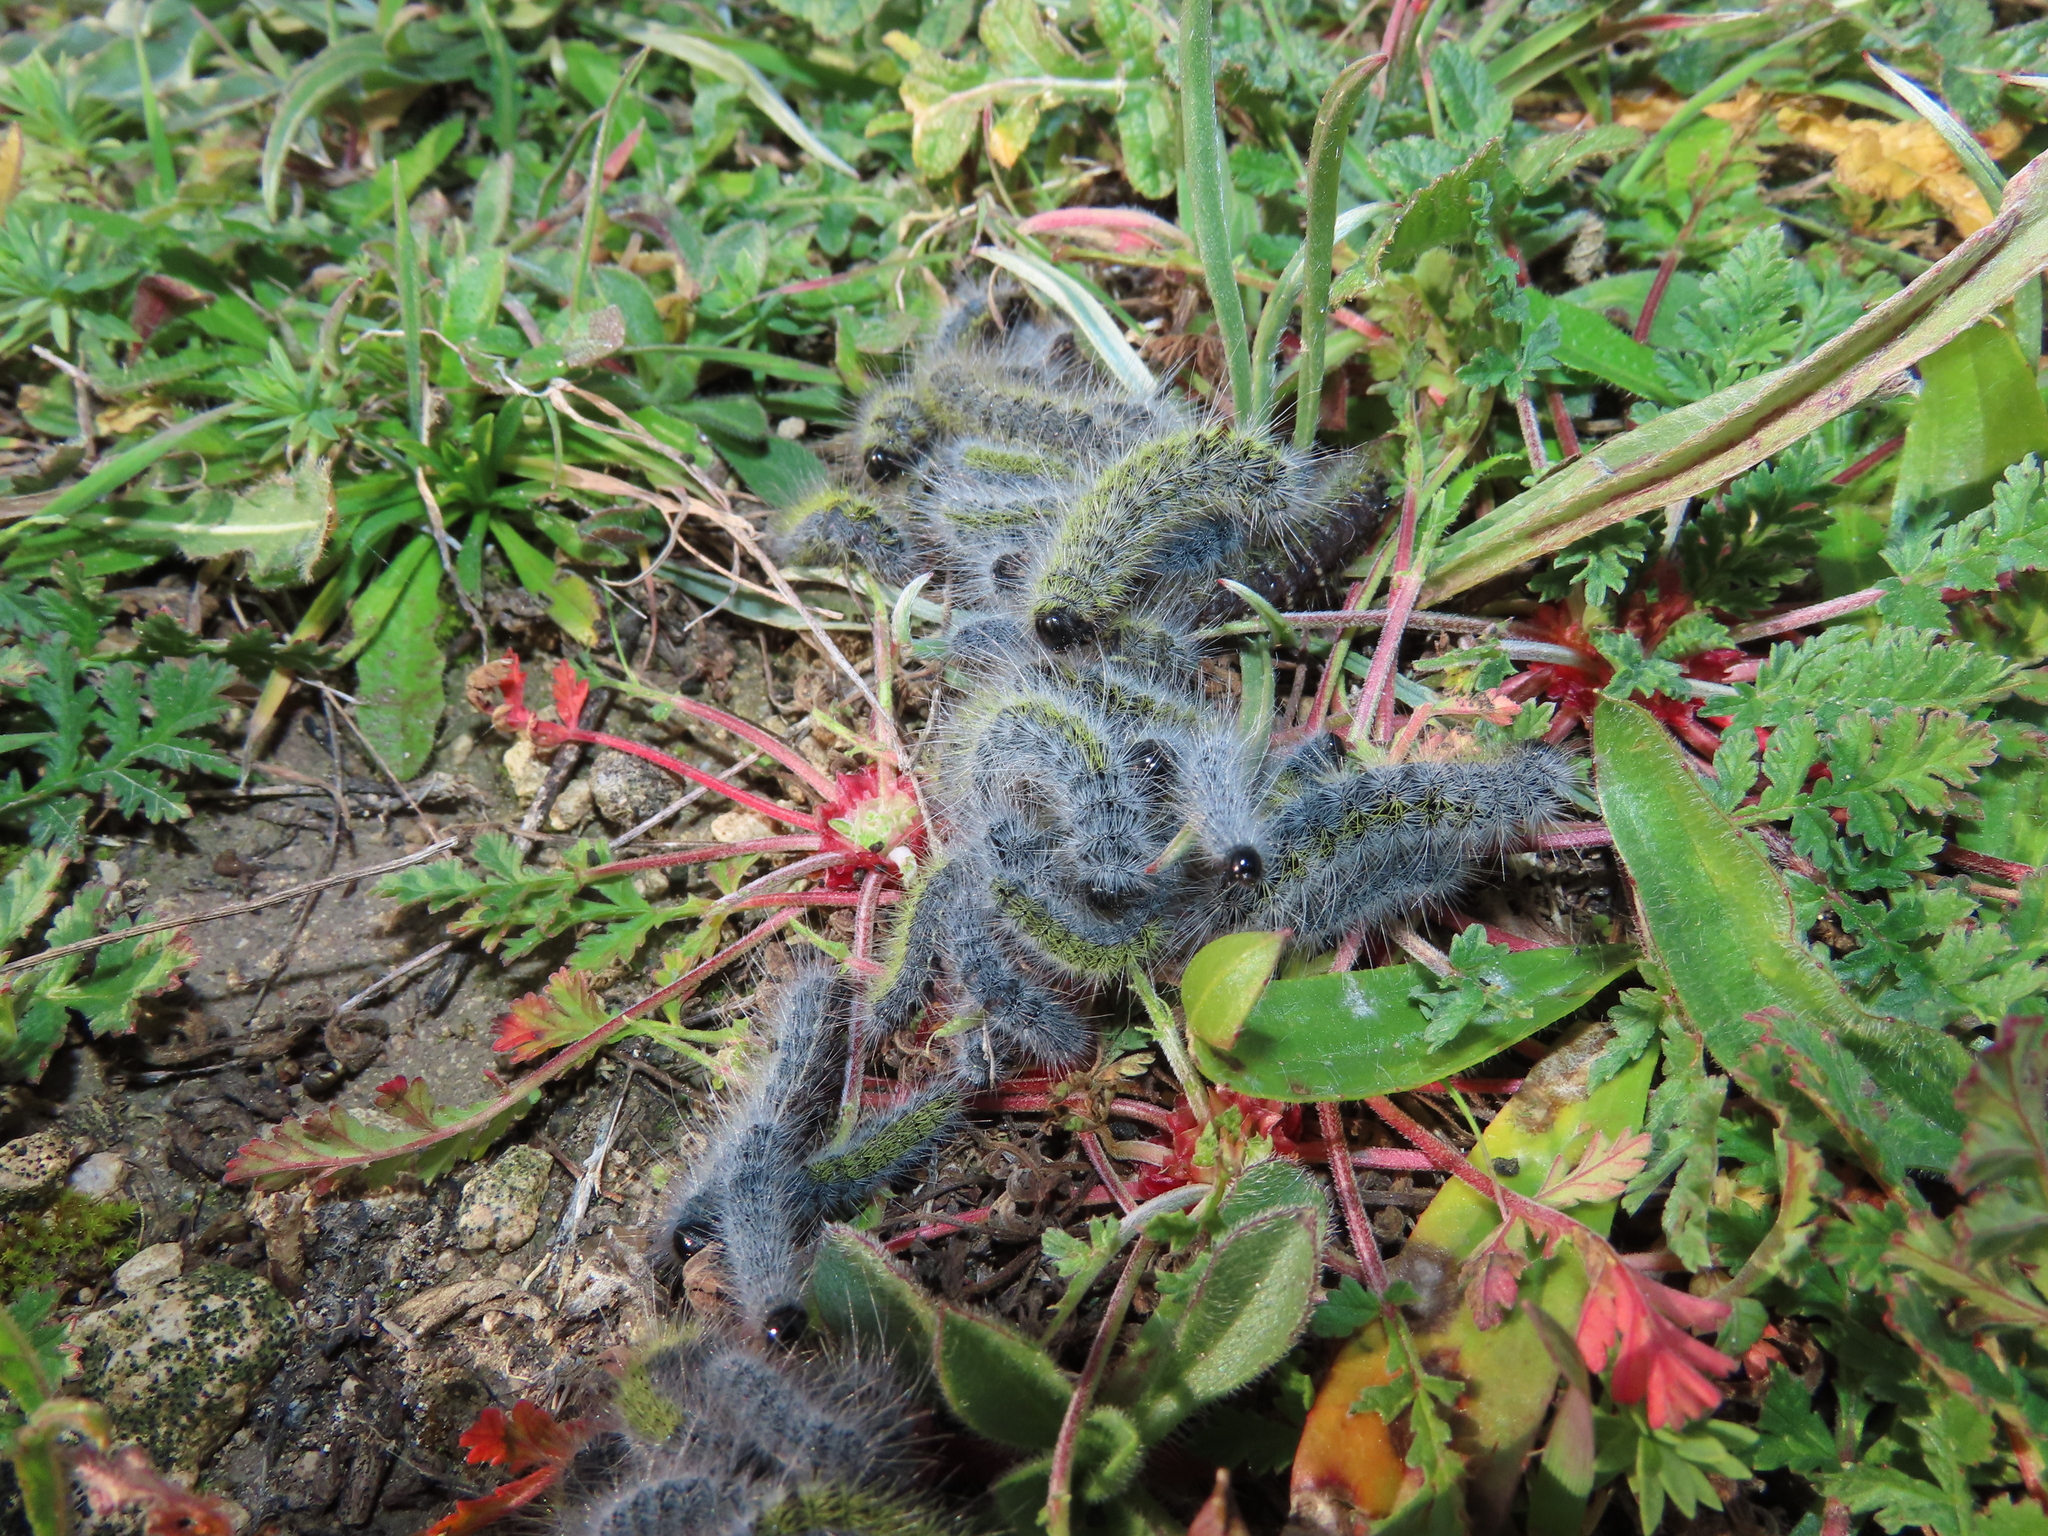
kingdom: Animalia
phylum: Arthropoda
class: Insecta
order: Lepidoptera
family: Notodontidae
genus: Thaumetopoea
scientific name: Thaumetopoea herculeana
